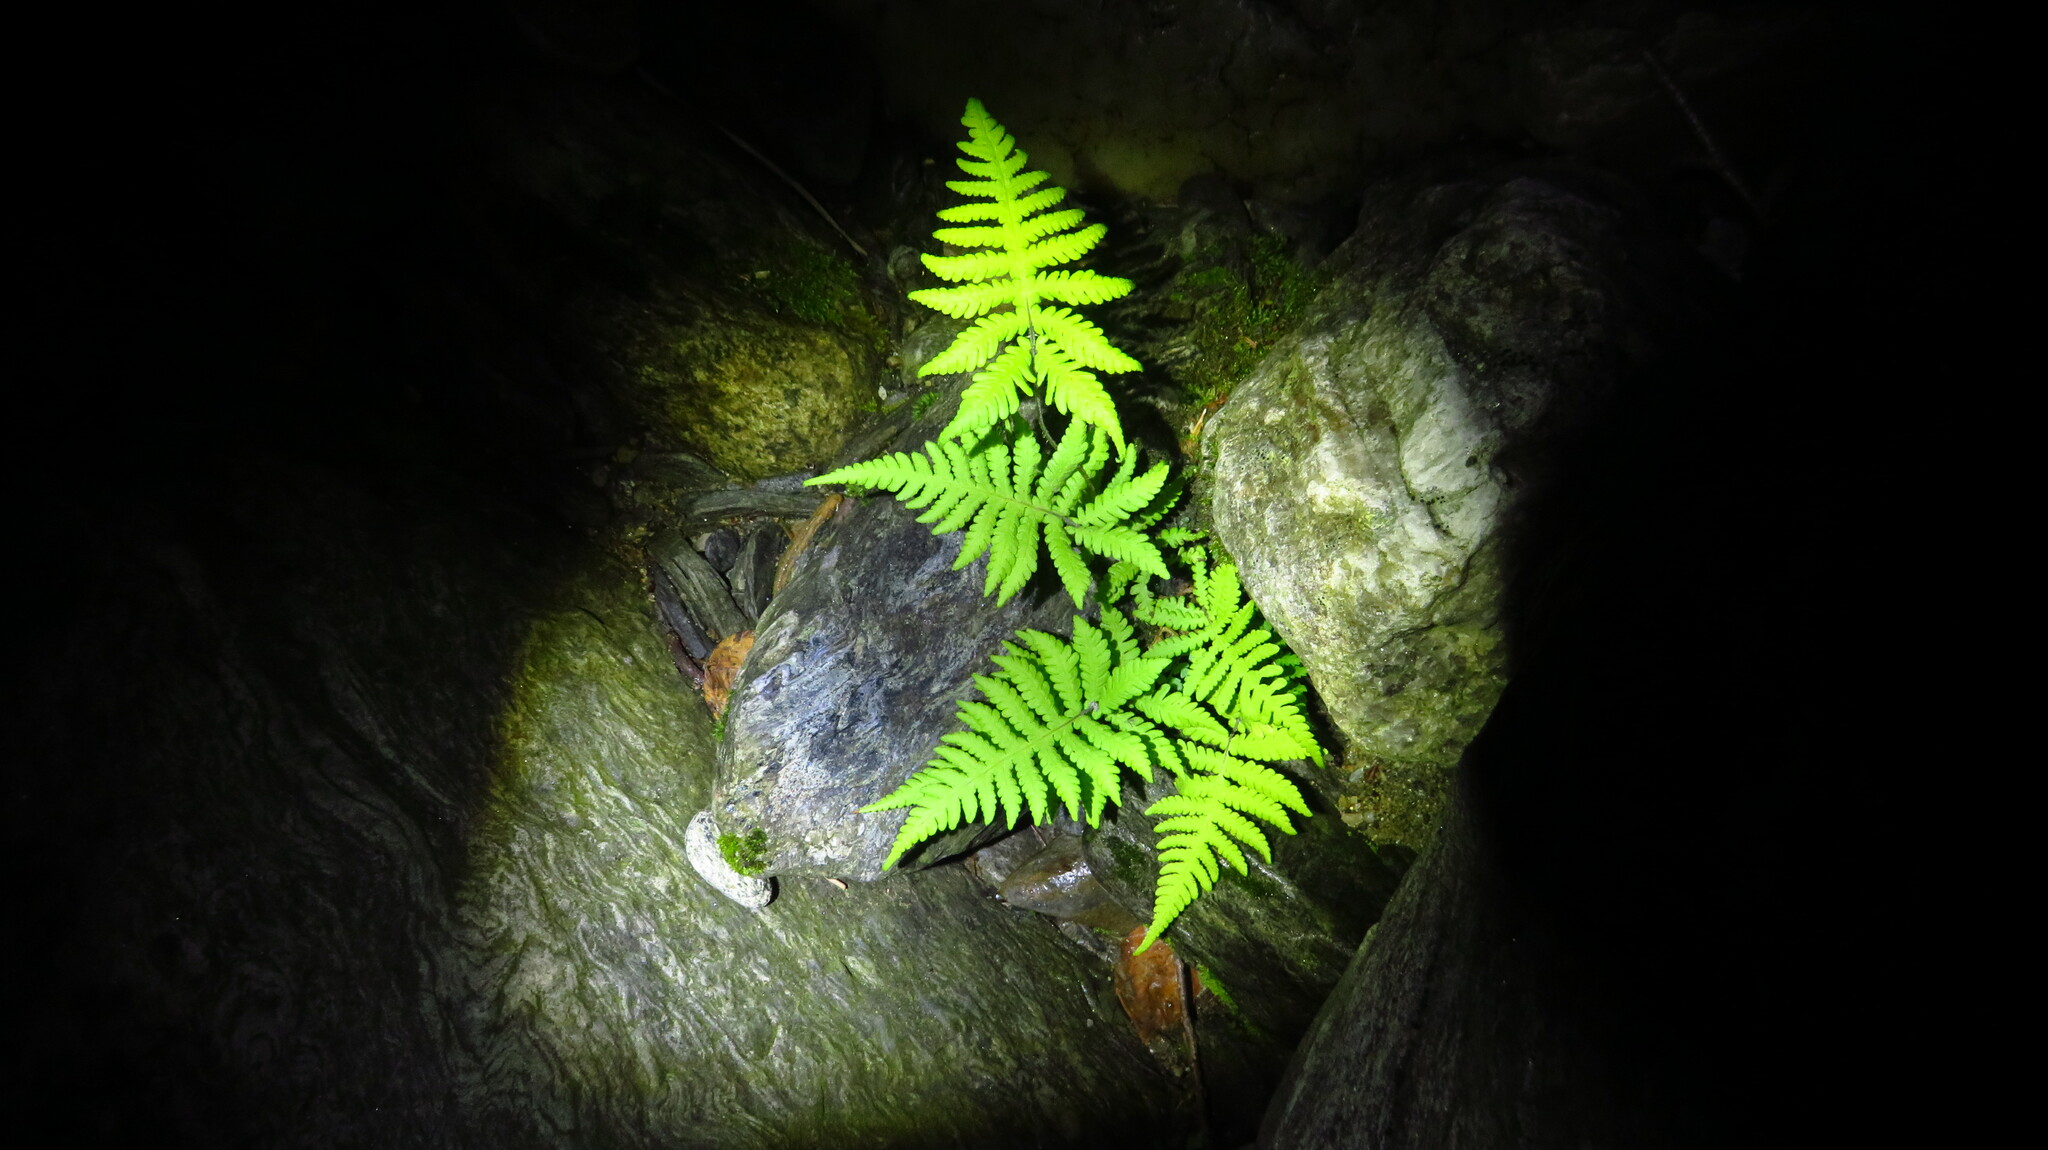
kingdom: Plantae
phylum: Tracheophyta
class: Polypodiopsida
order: Polypodiales
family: Thelypteridaceae
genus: Phegopteris
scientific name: Phegopteris connectilis
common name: Beech fern
